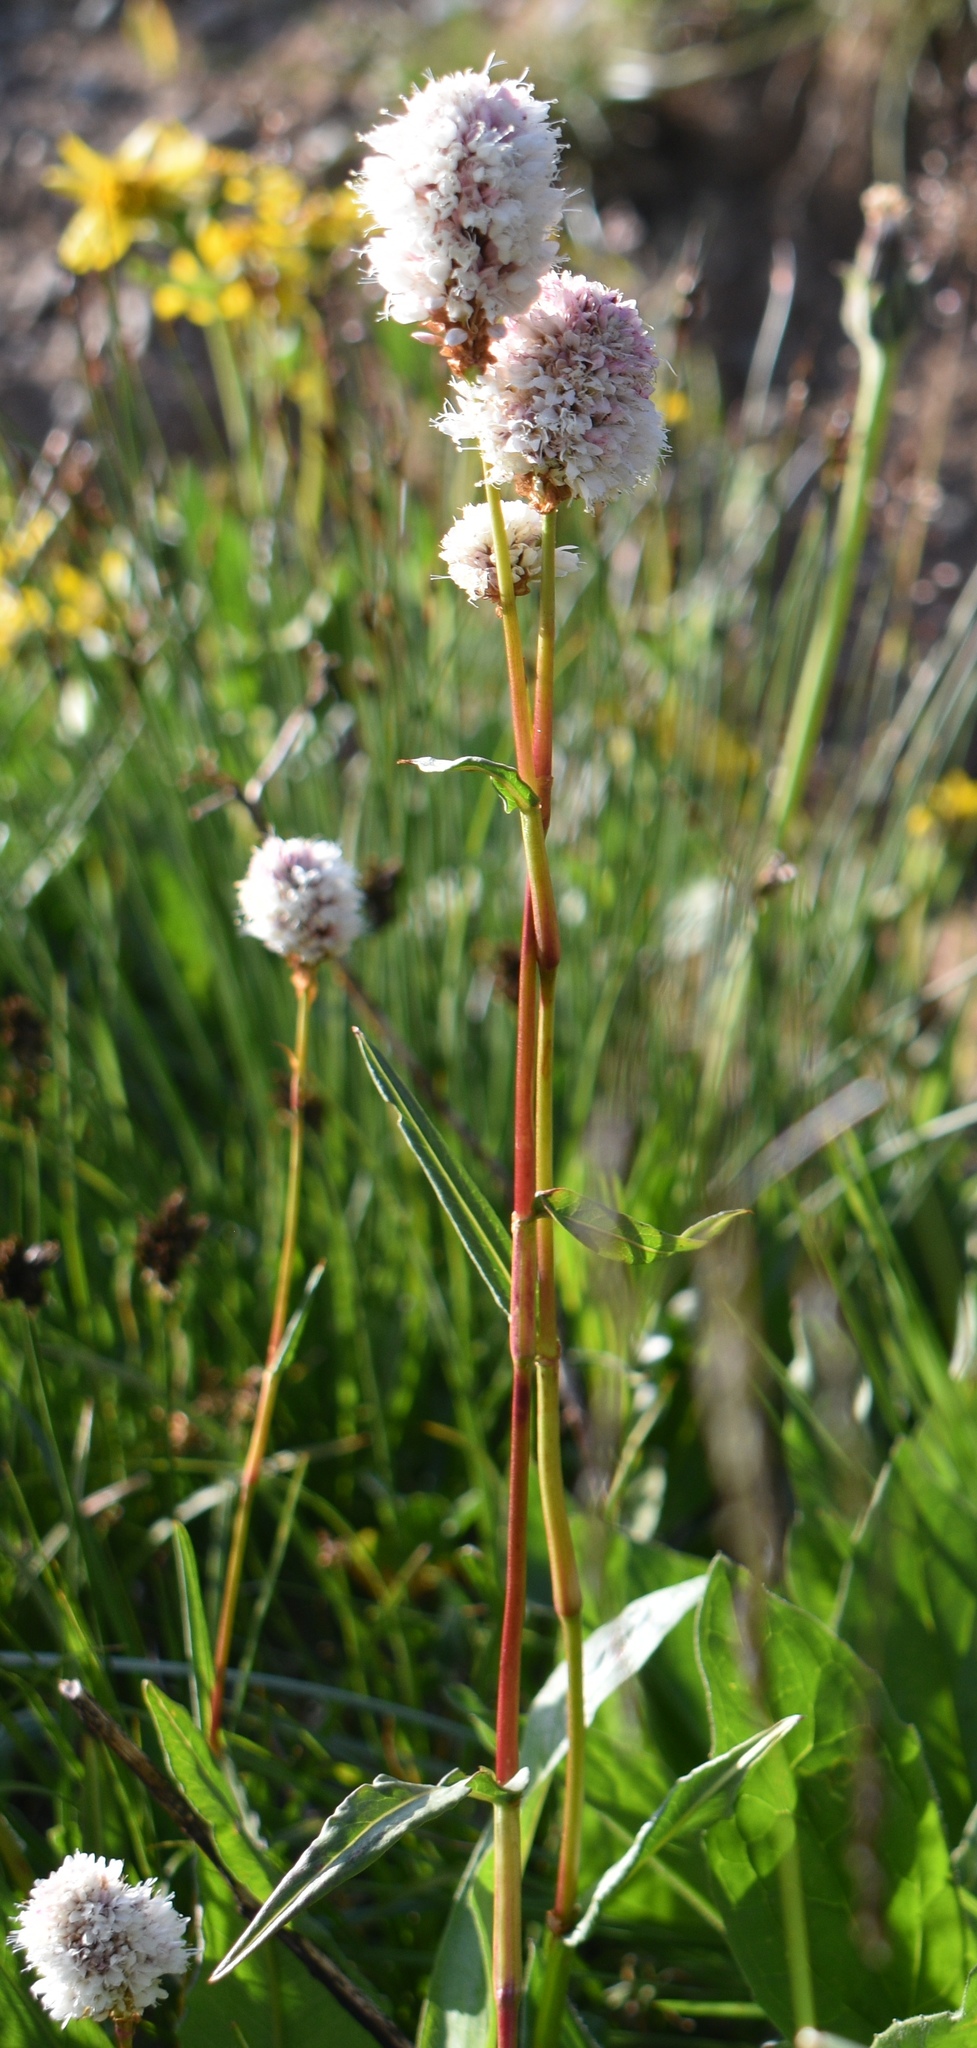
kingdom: Plantae
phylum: Tracheophyta
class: Magnoliopsida
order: Caryophyllales
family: Polygonaceae
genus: Bistorta
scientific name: Bistorta bistortoides
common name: American bistort
